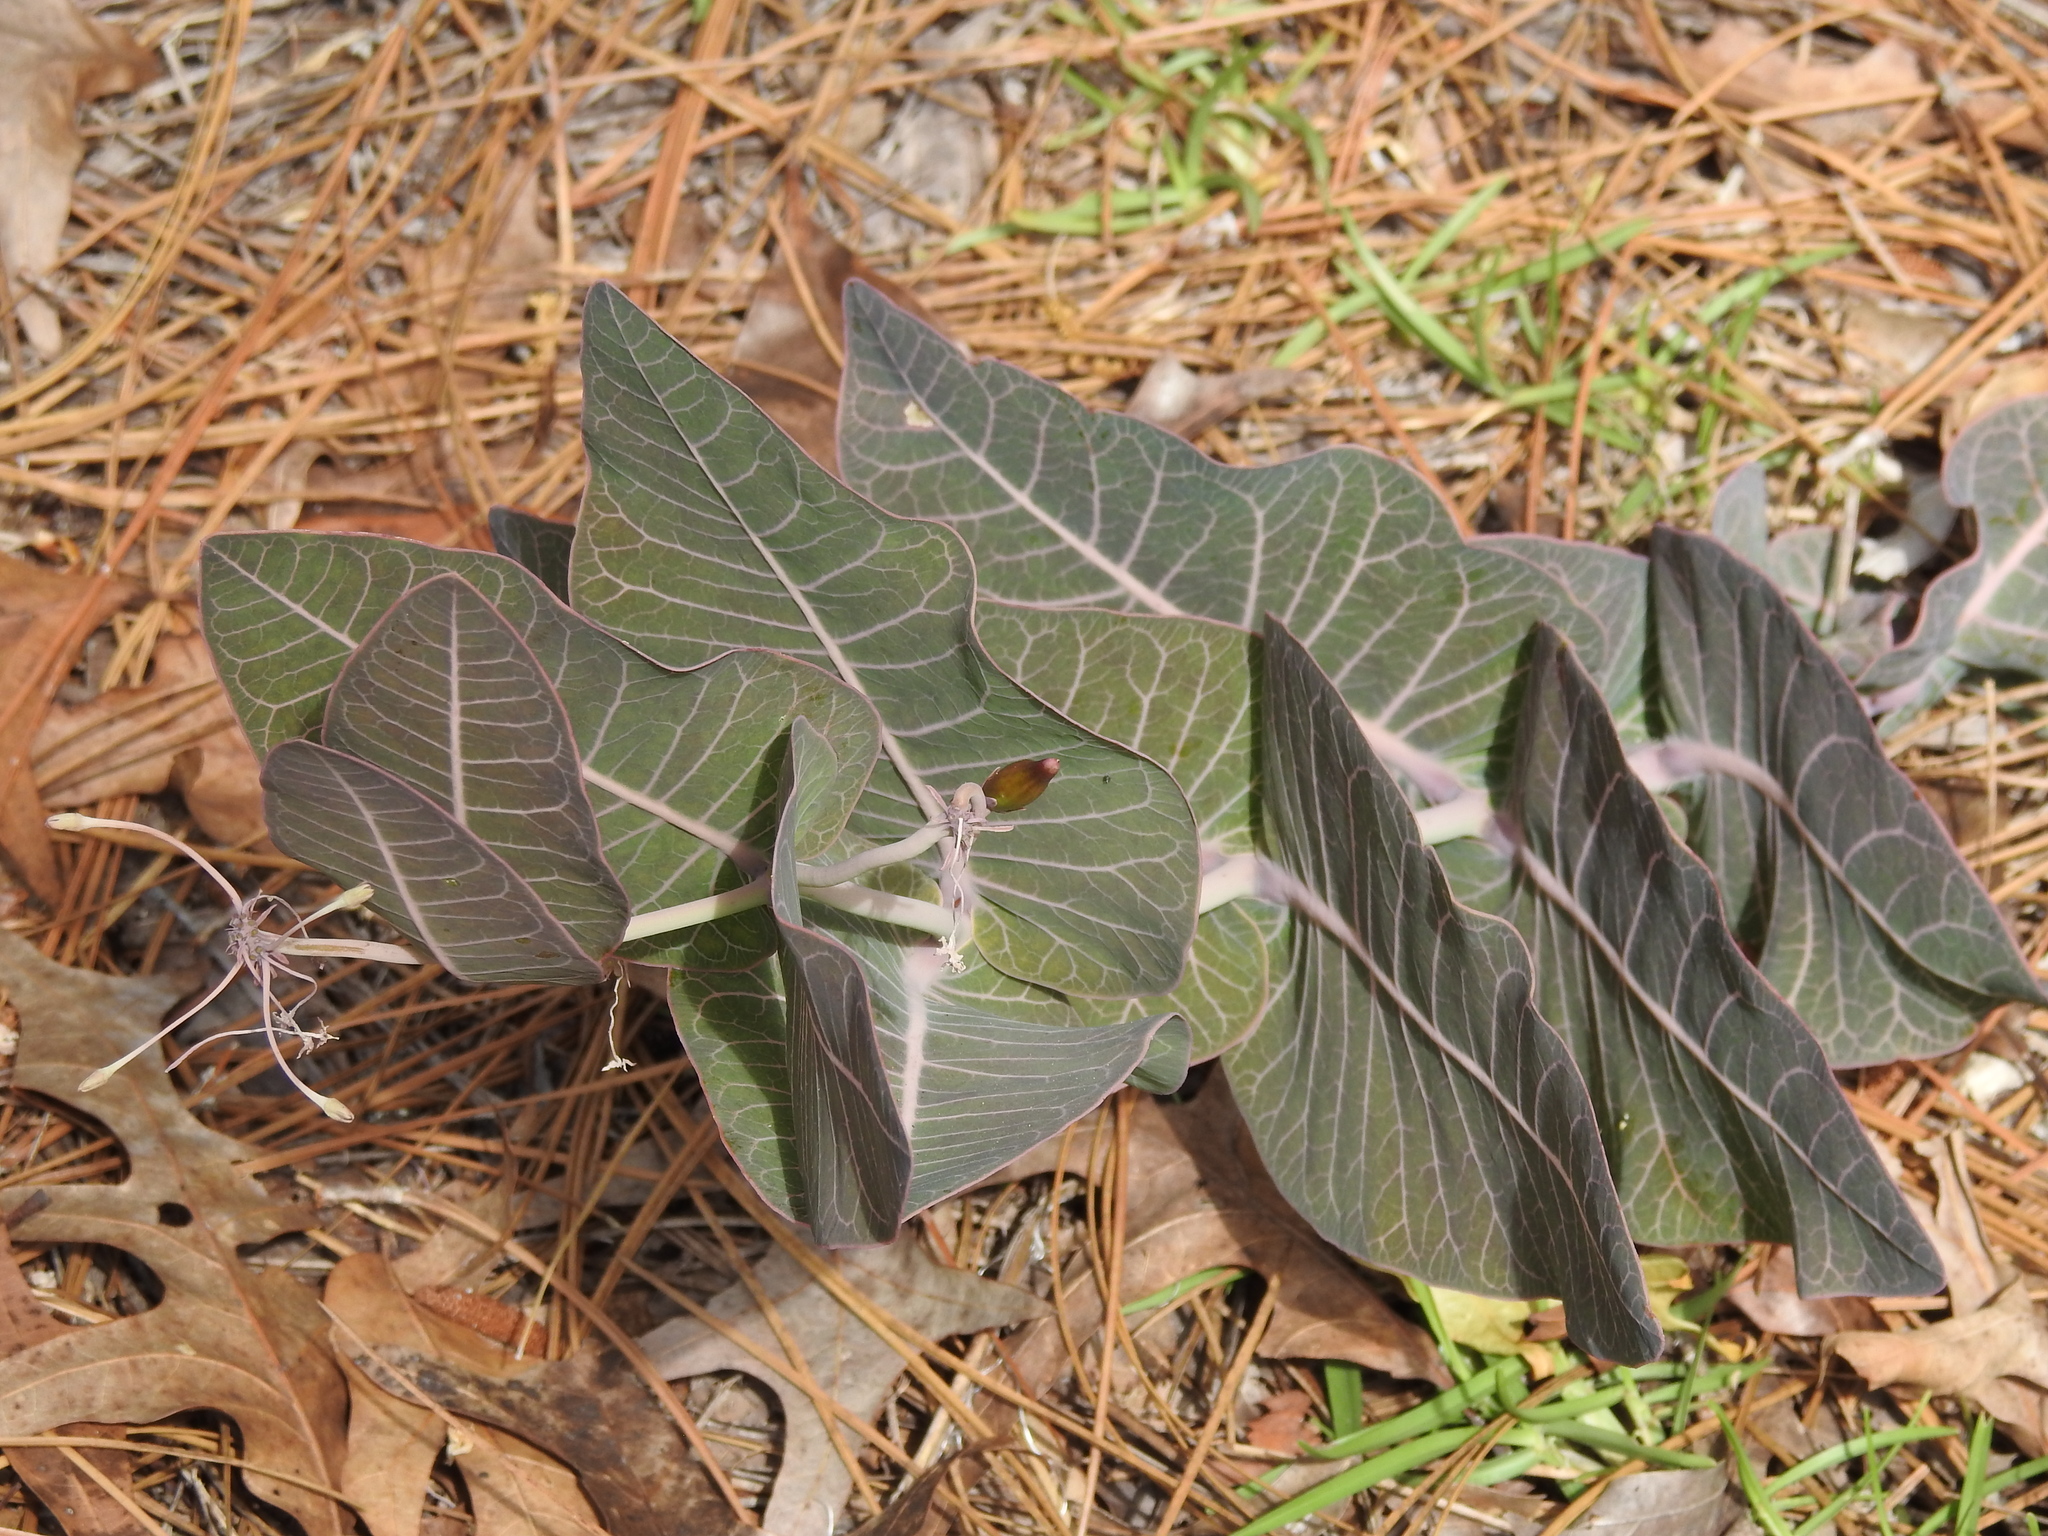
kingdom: Plantae
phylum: Tracheophyta
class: Magnoliopsida
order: Gentianales
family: Apocynaceae
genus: Asclepias
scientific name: Asclepias humistrata
